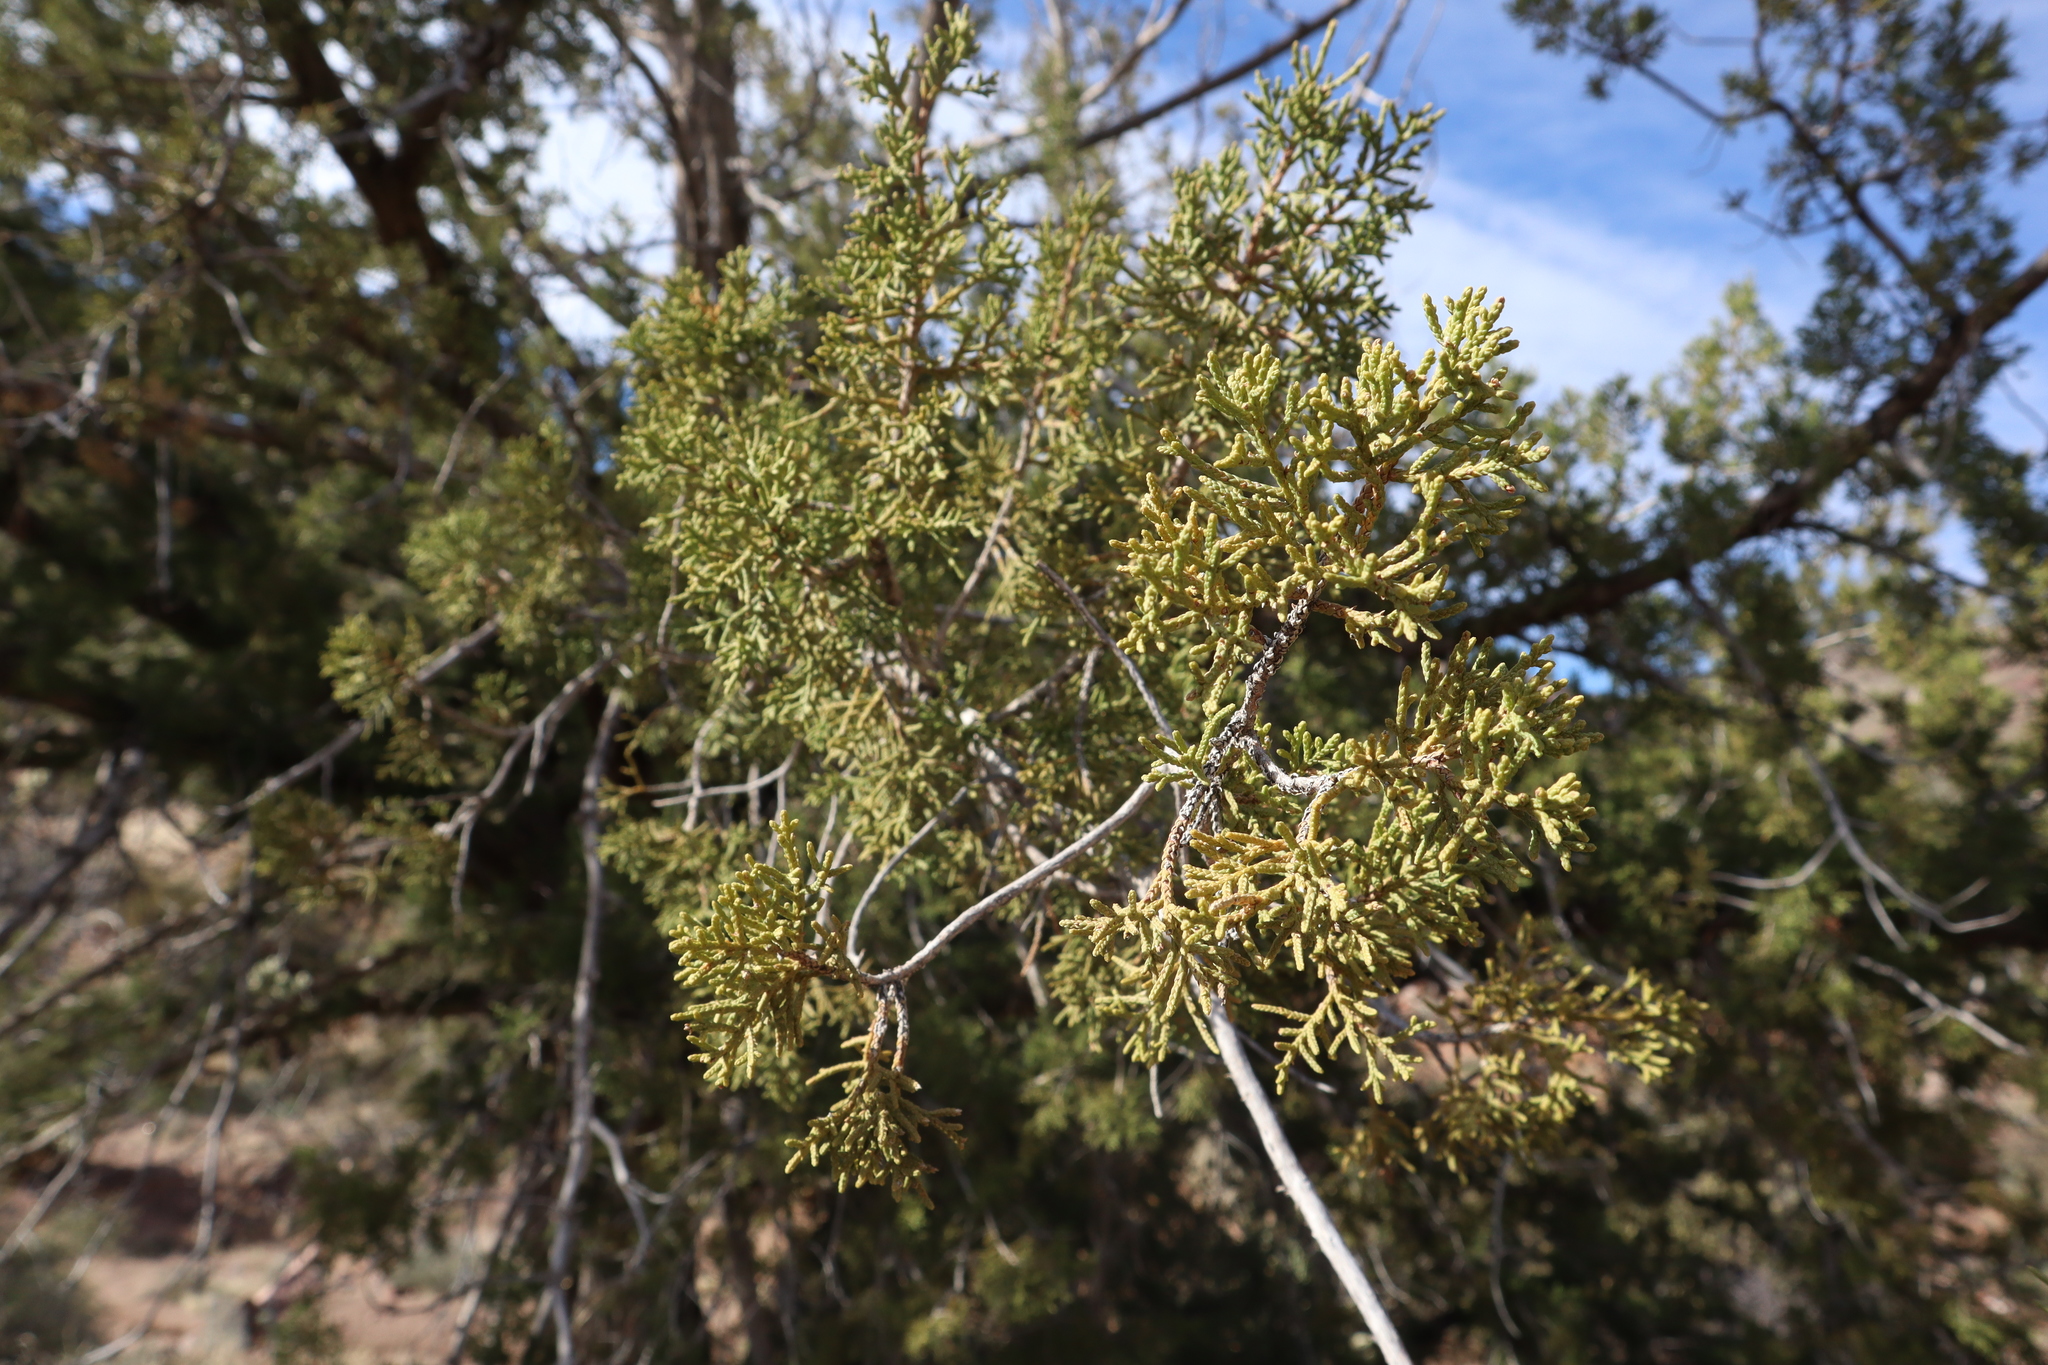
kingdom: Plantae
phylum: Tracheophyta
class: Pinopsida
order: Pinales
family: Cupressaceae
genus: Juniperus
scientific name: Juniperus arizonica
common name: Arizona juniper
